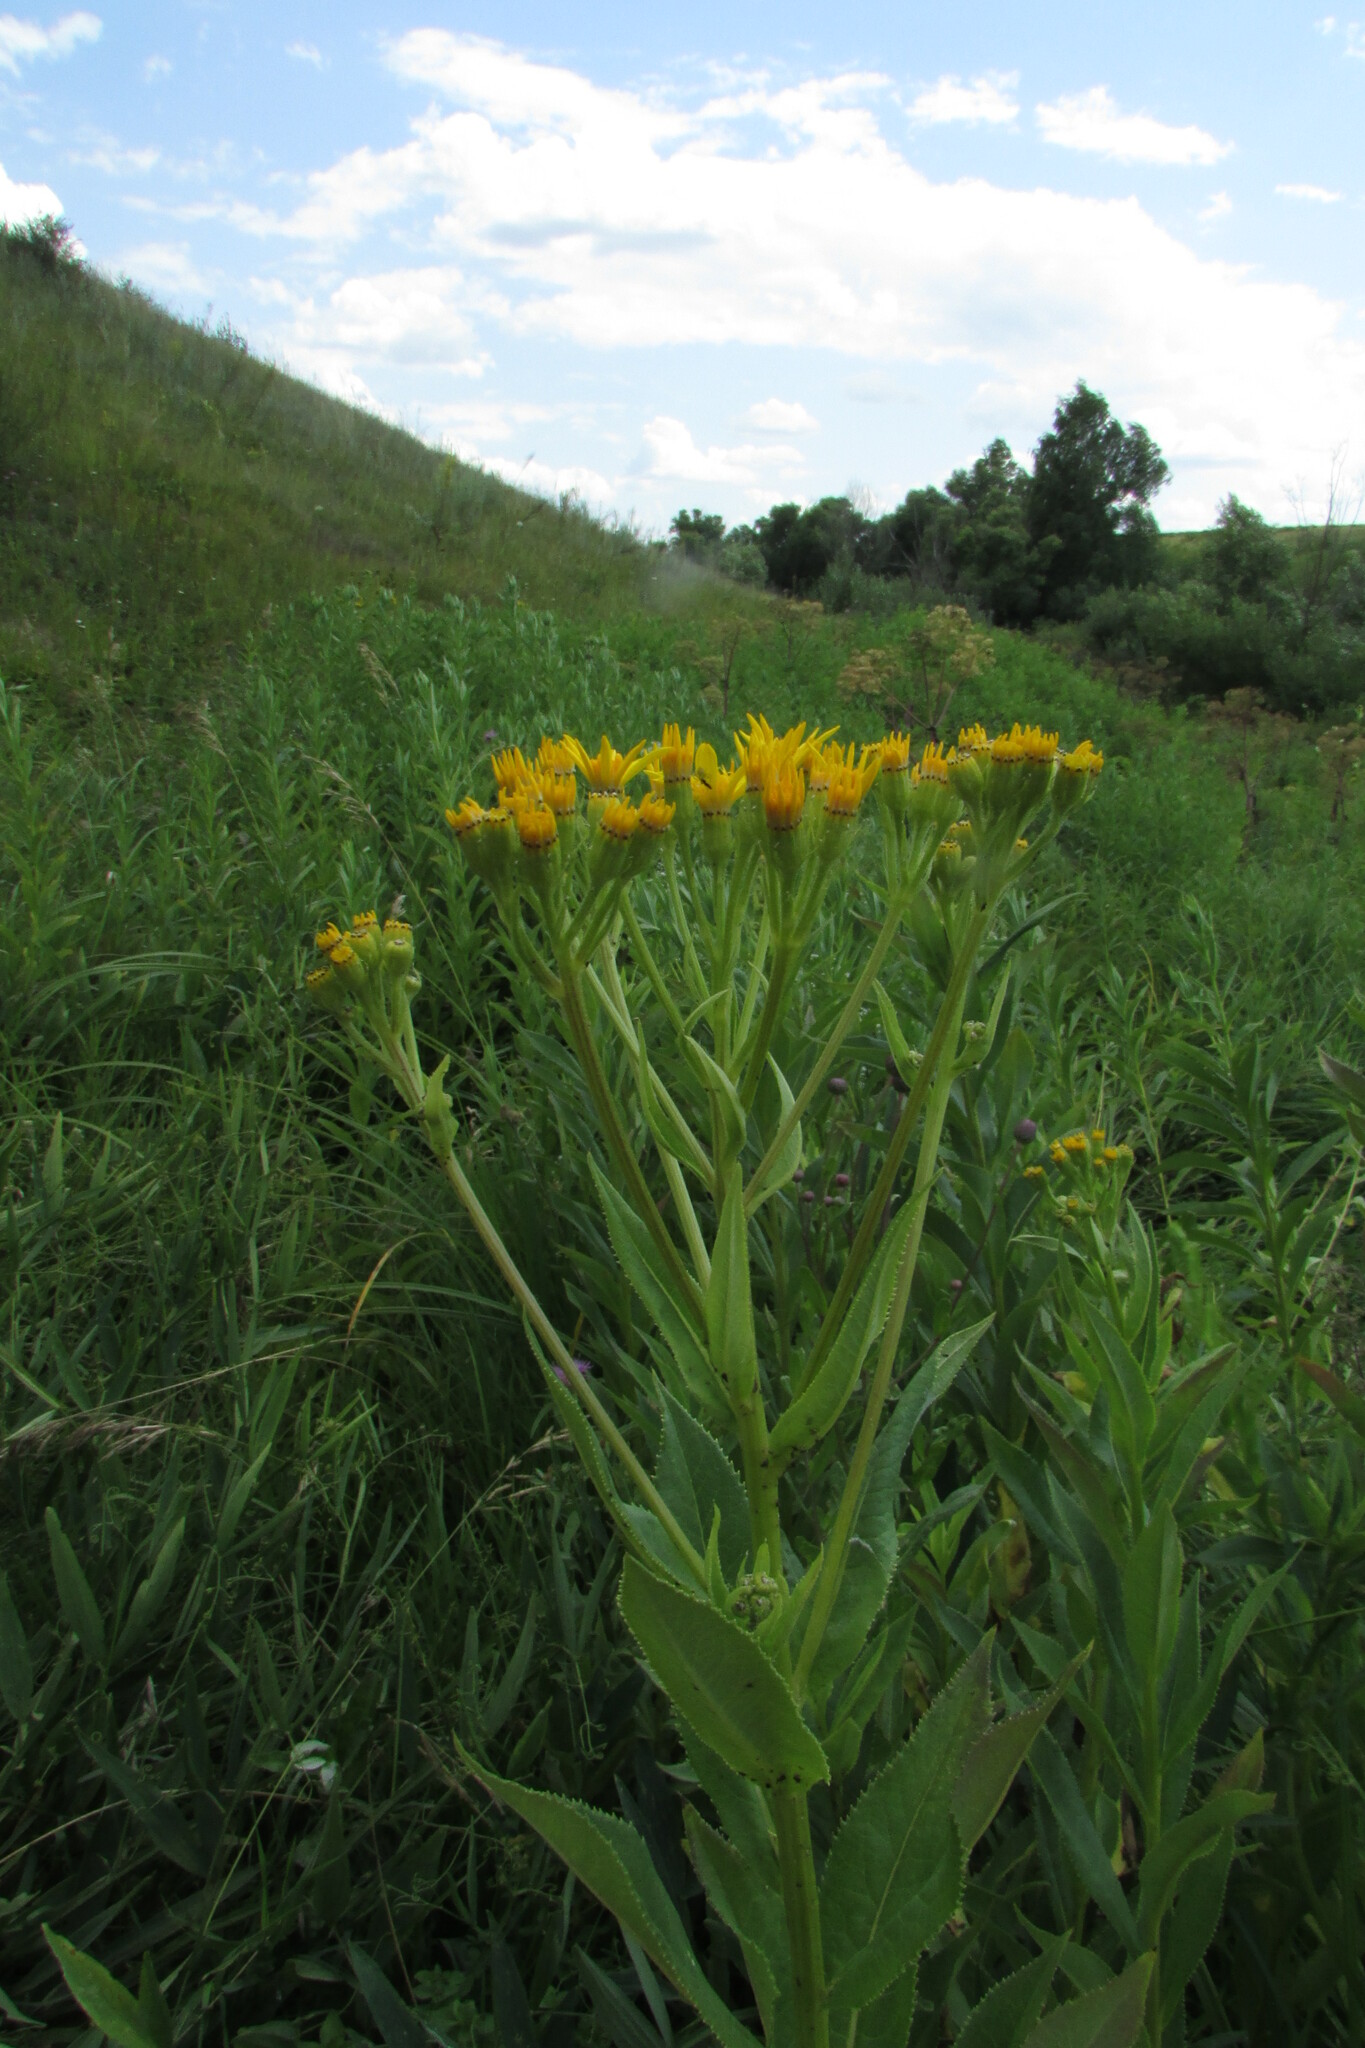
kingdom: Plantae
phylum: Tracheophyta
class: Magnoliopsida
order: Asterales
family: Asteraceae
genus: Senecio
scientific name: Senecio sarracenicus
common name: Broad-leaved ragwort
